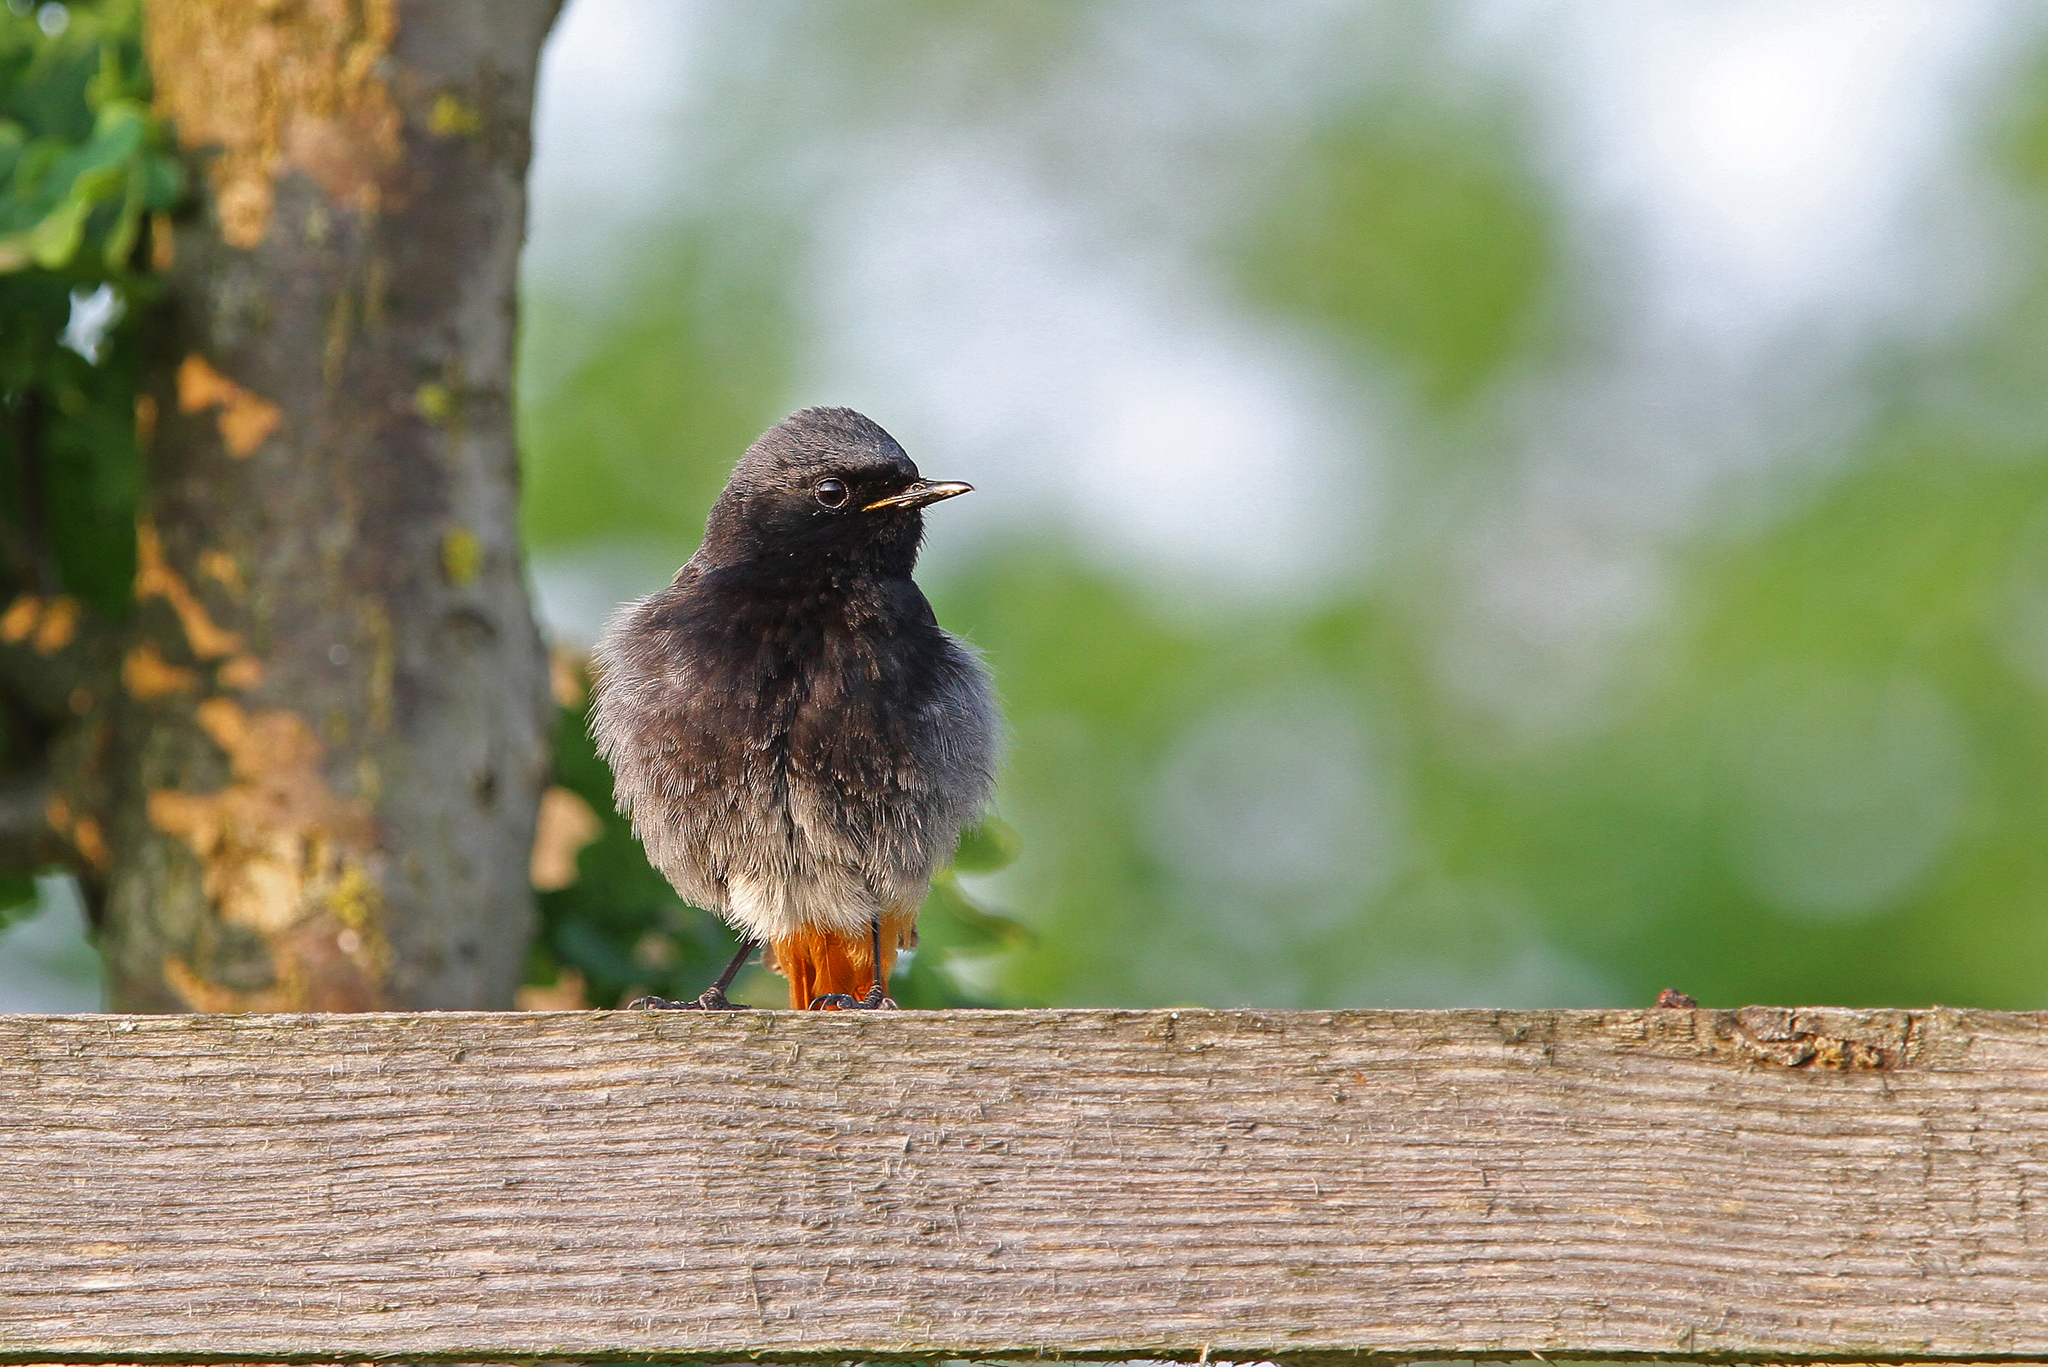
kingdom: Animalia
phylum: Chordata
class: Aves
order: Passeriformes
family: Muscicapidae
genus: Phoenicurus
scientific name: Phoenicurus ochruros
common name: Black redstart
